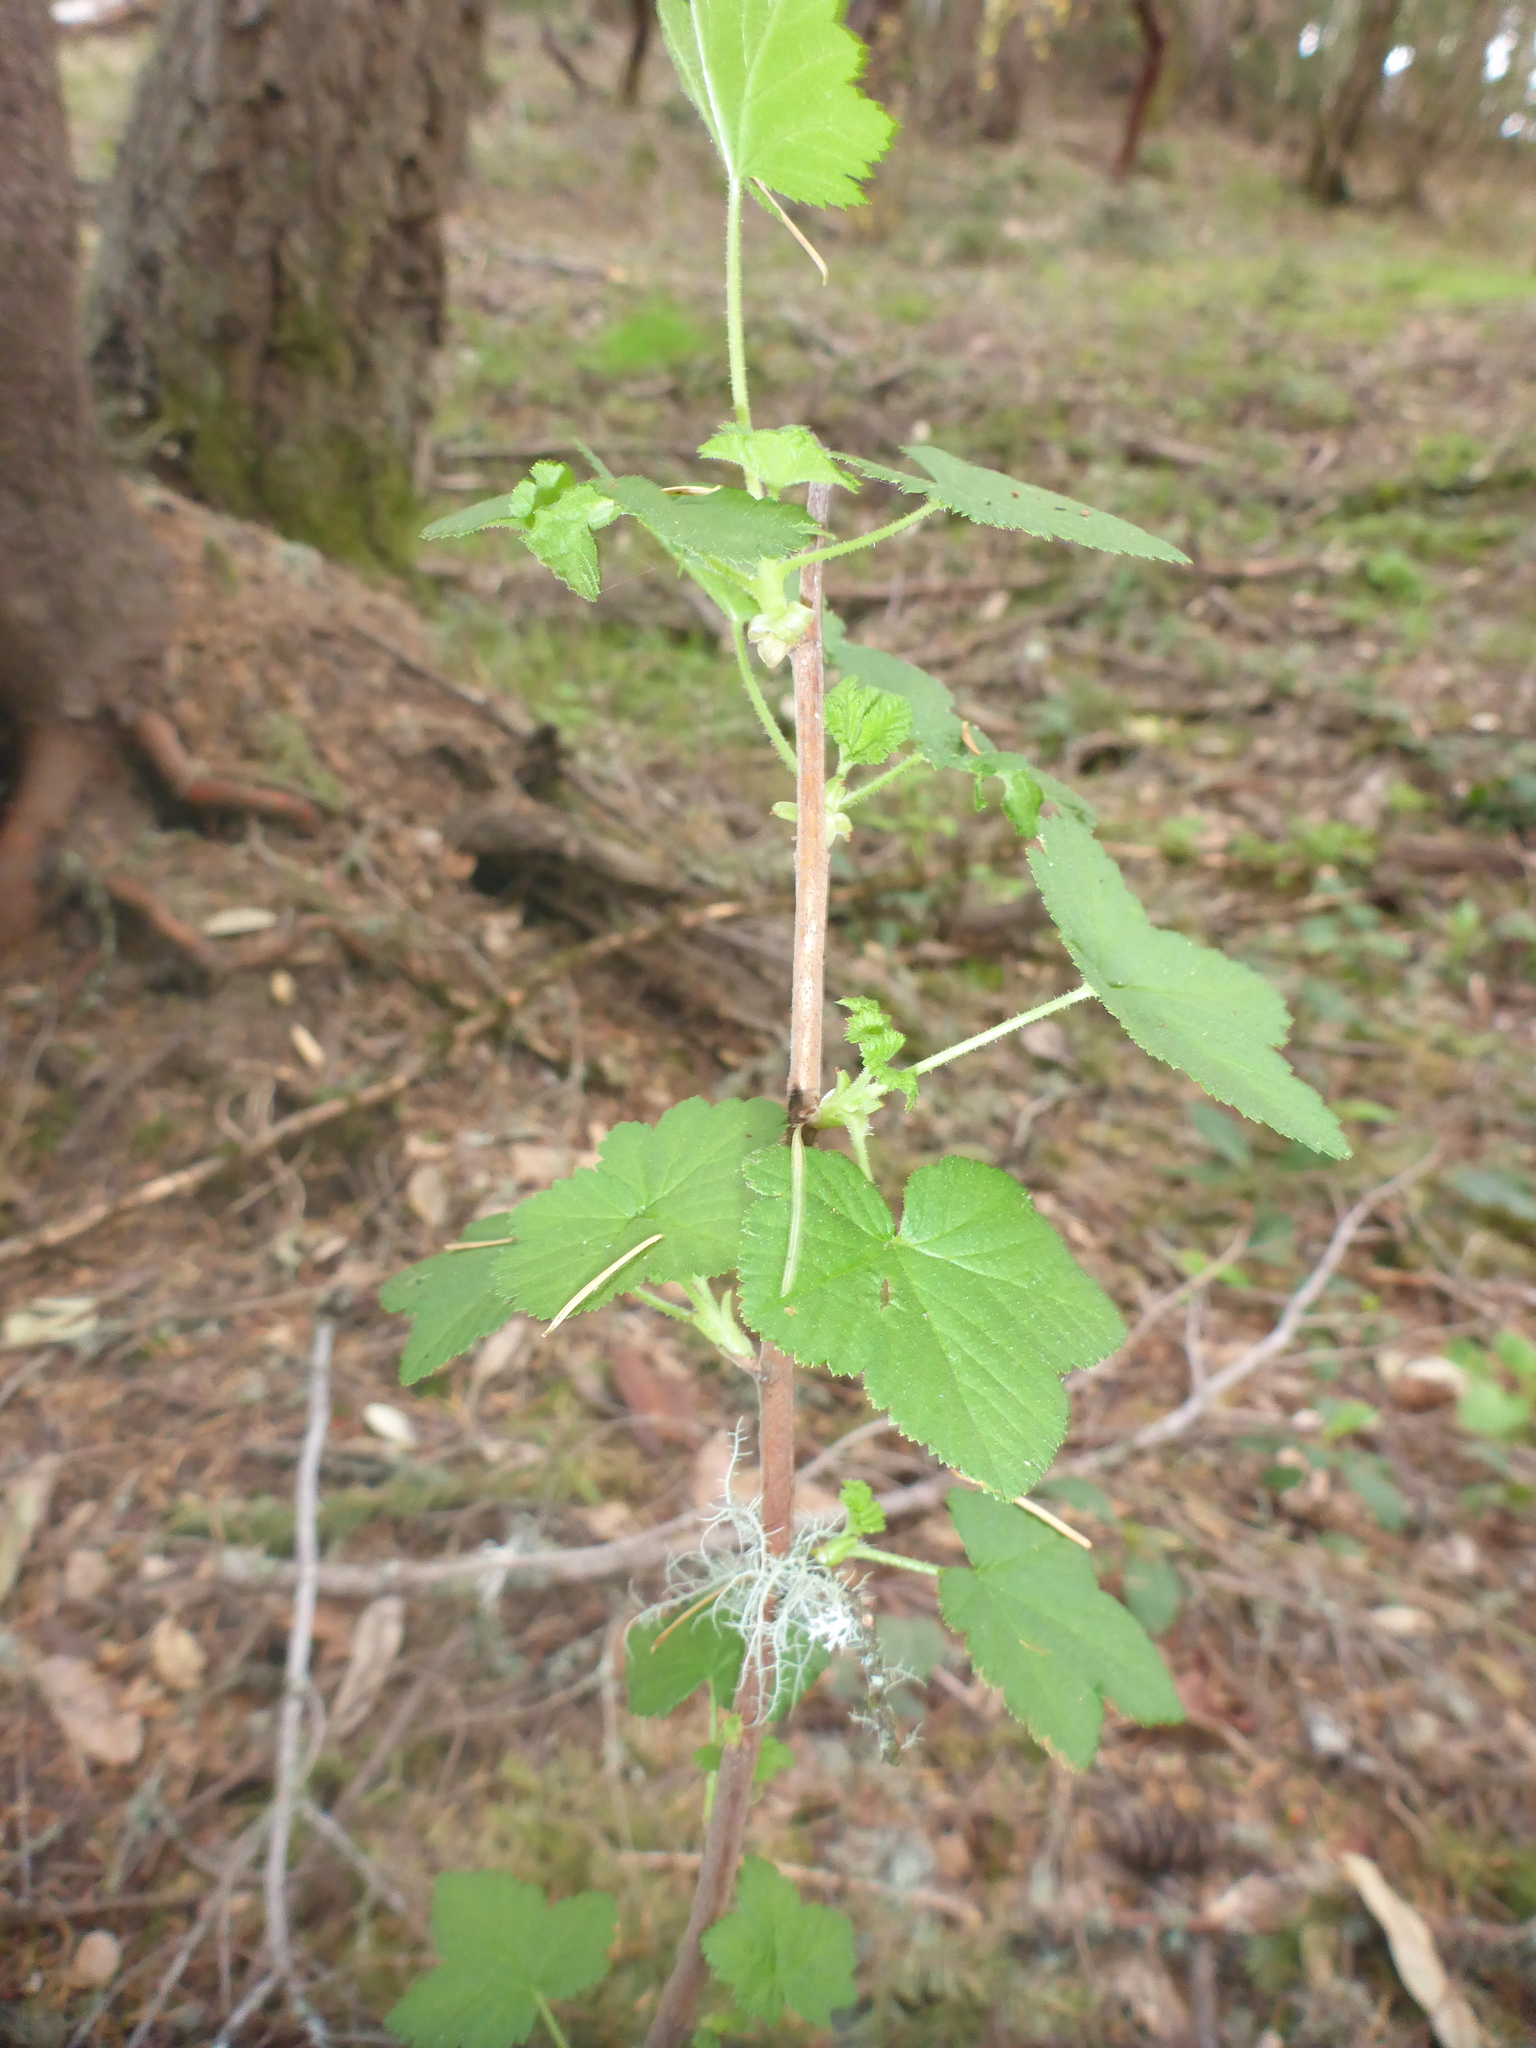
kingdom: Plantae
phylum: Tracheophyta
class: Magnoliopsida
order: Rosales
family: Rosaceae
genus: Rubus
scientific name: Rubus parviflorus
